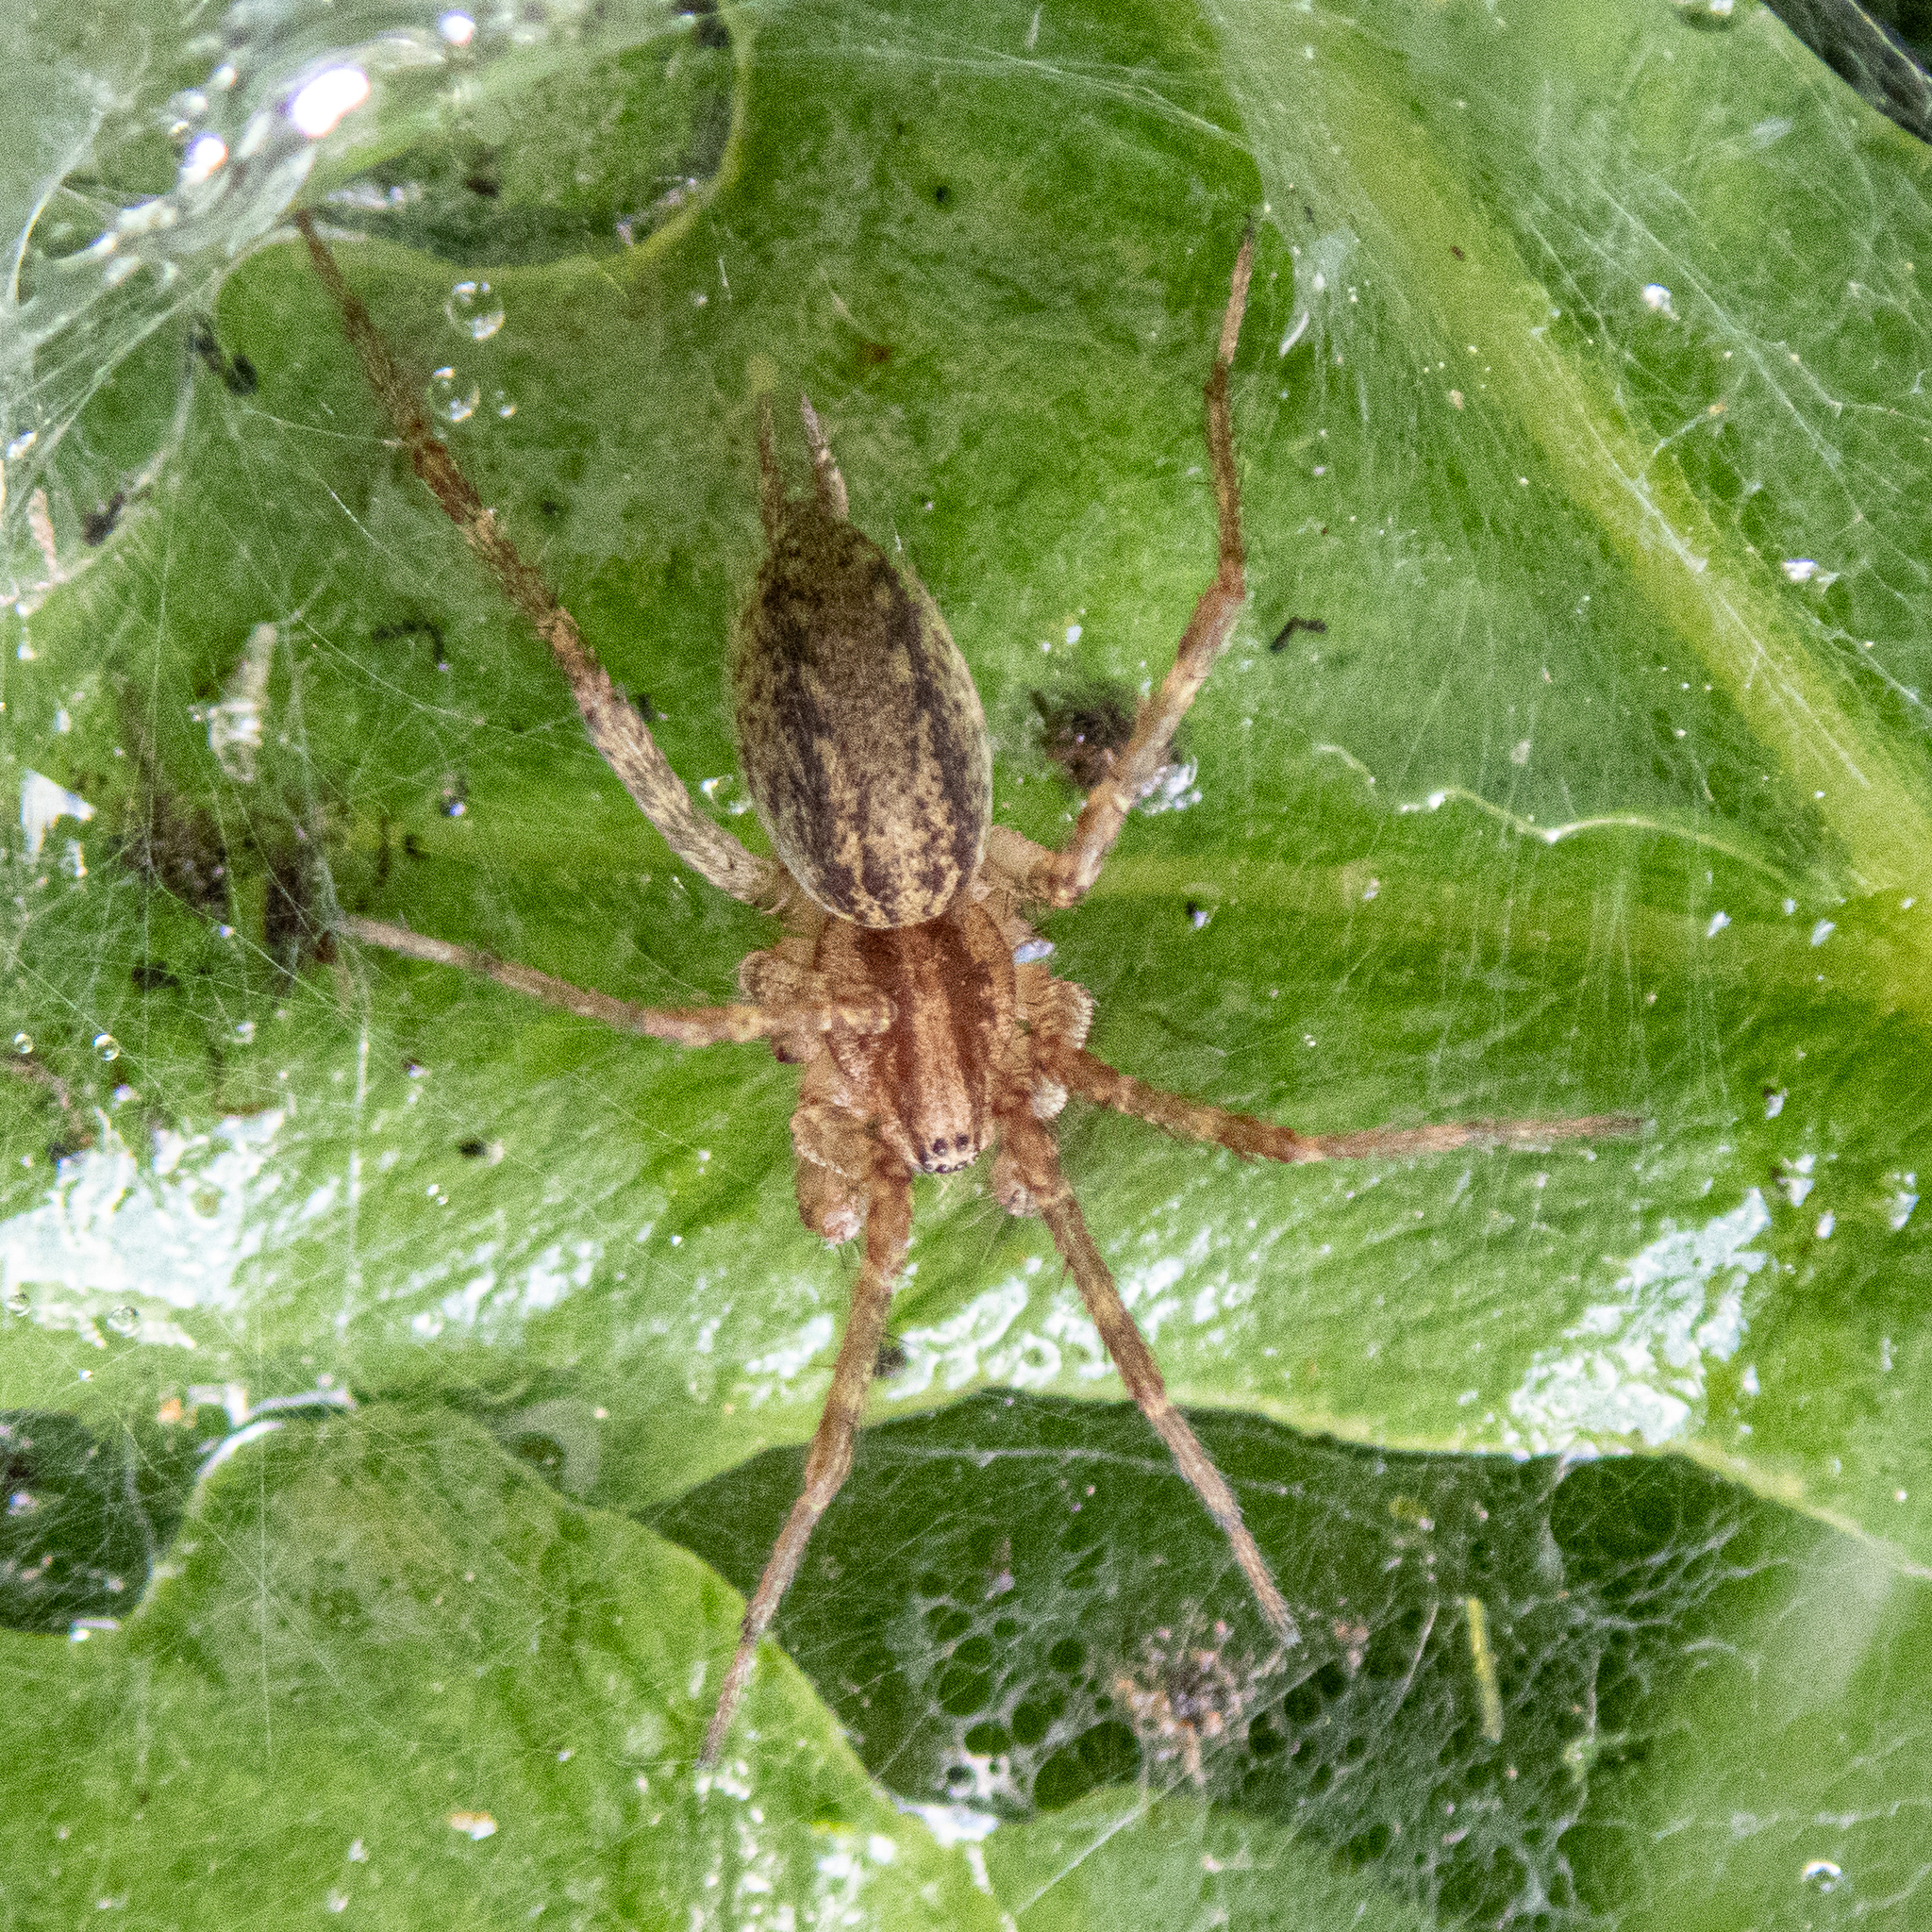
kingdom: Animalia
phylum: Arthropoda
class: Arachnida
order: Araneae
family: Agelenidae
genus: Agelenopsis
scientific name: Agelenopsis
